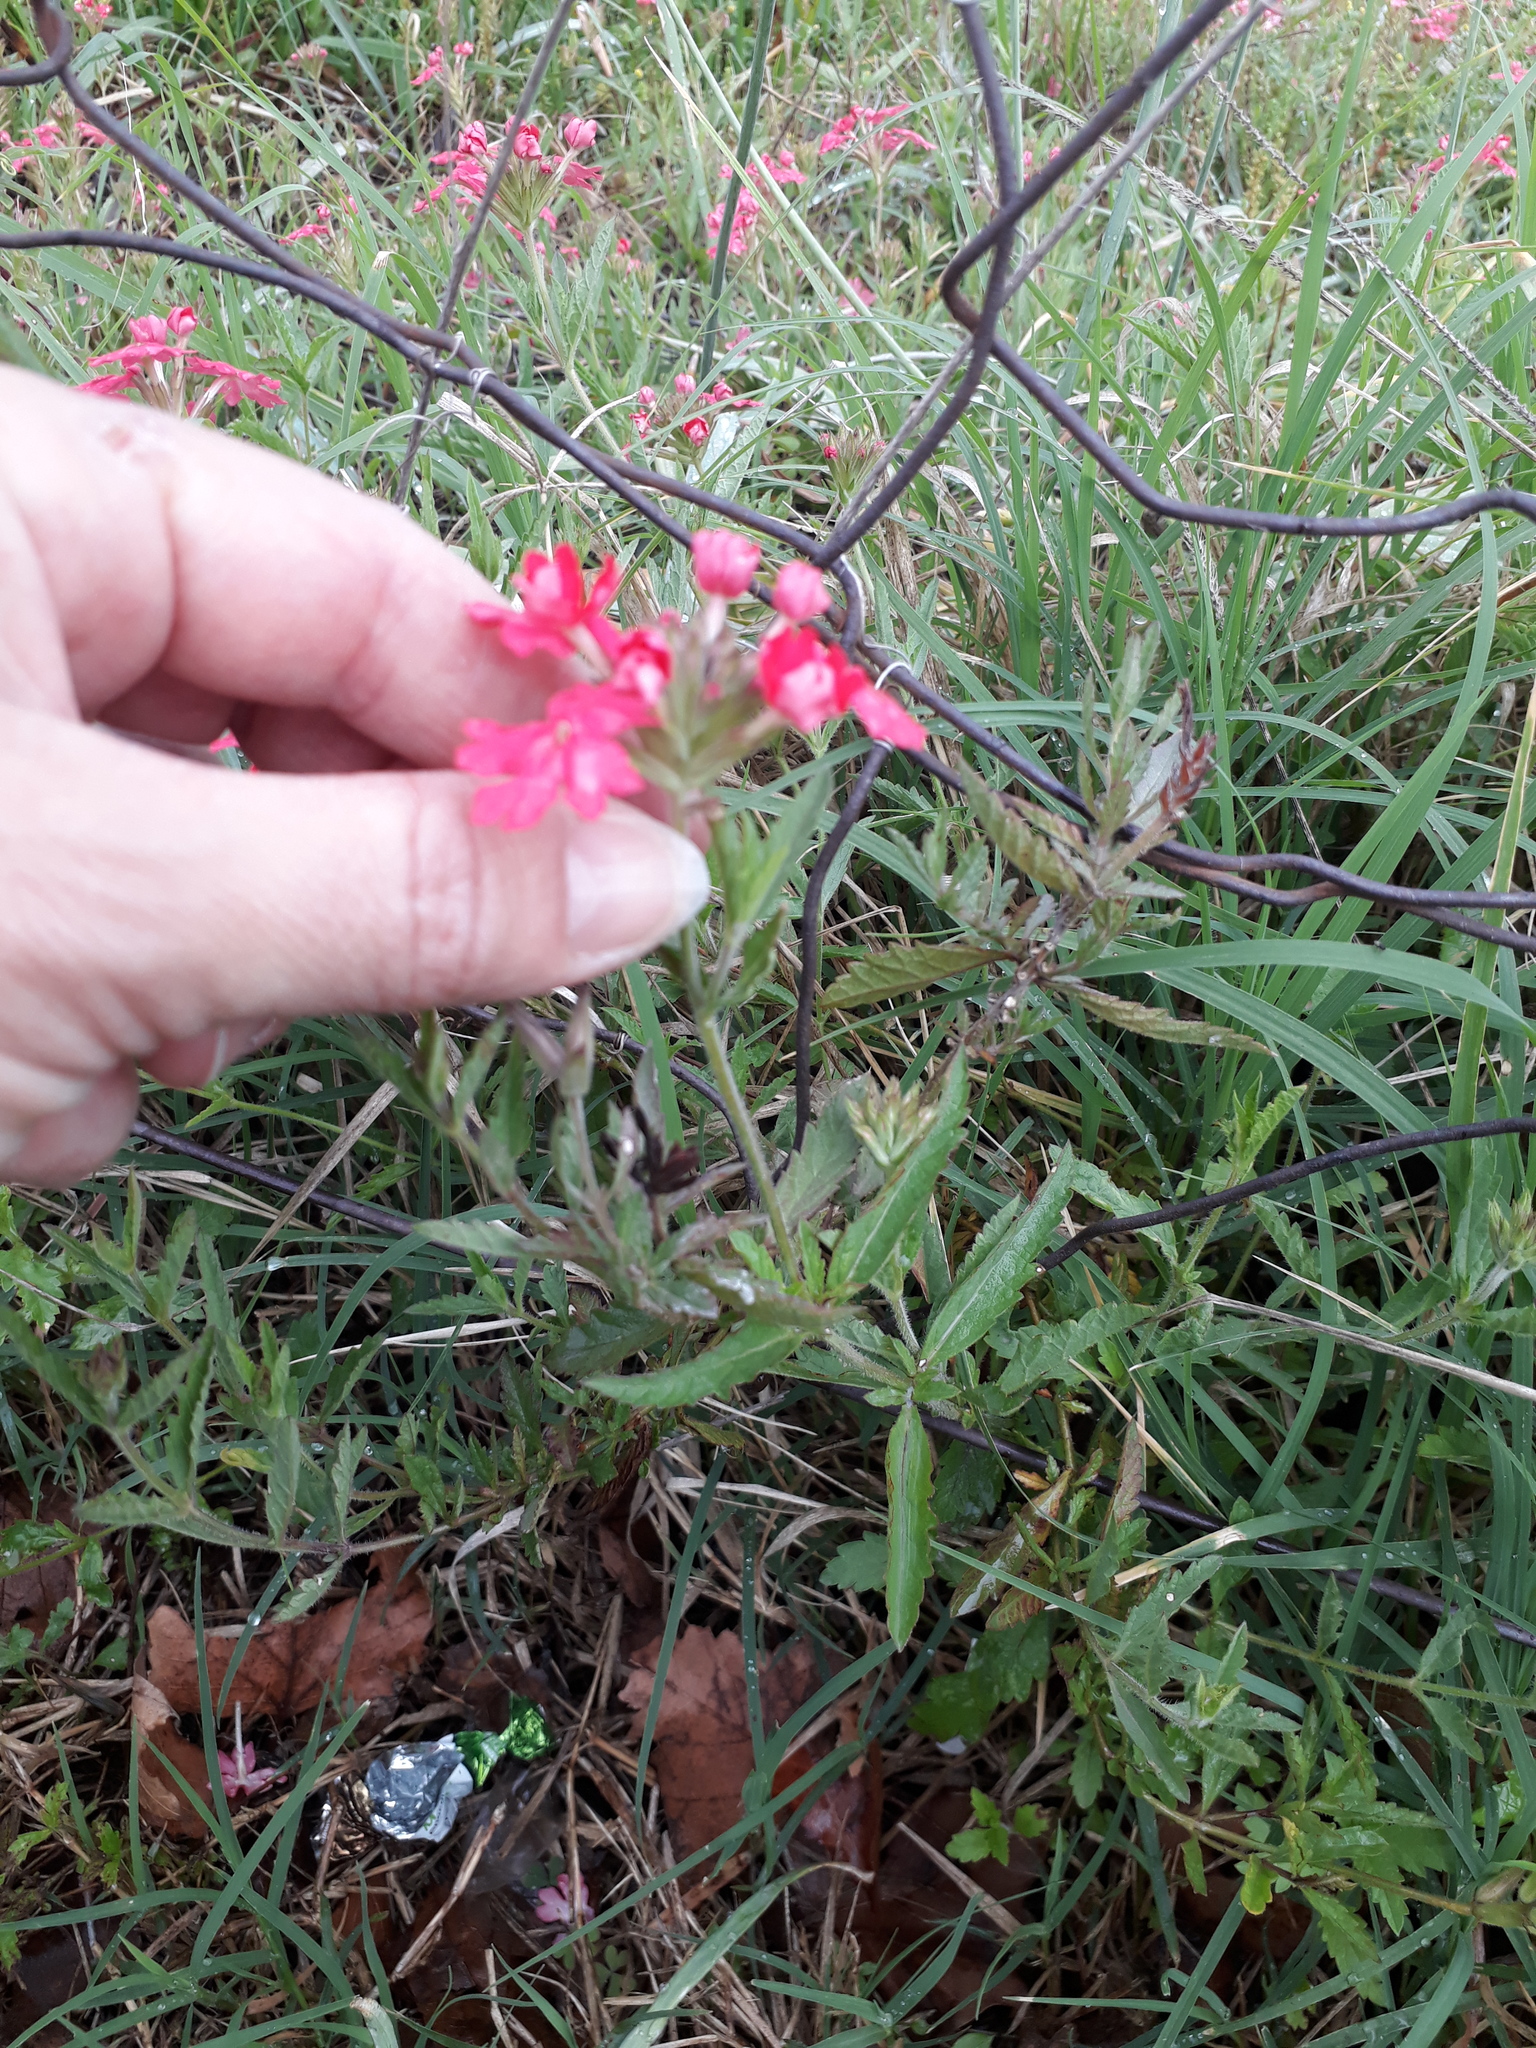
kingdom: Plantae
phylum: Tracheophyta
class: Magnoliopsida
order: Lamiales
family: Verbenaceae
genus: Verbena
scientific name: Verbena peruviana
